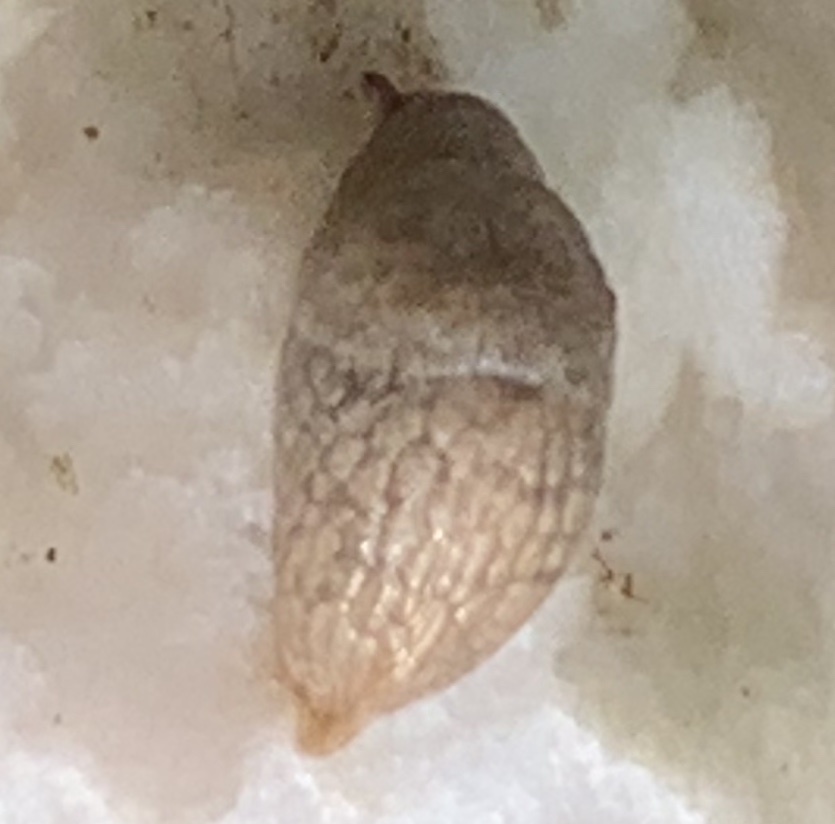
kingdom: Animalia
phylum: Mollusca
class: Gastropoda
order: Stylommatophora
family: Agriolimacidae
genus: Deroceras
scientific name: Deroceras reticulatum
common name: Gray field slug
